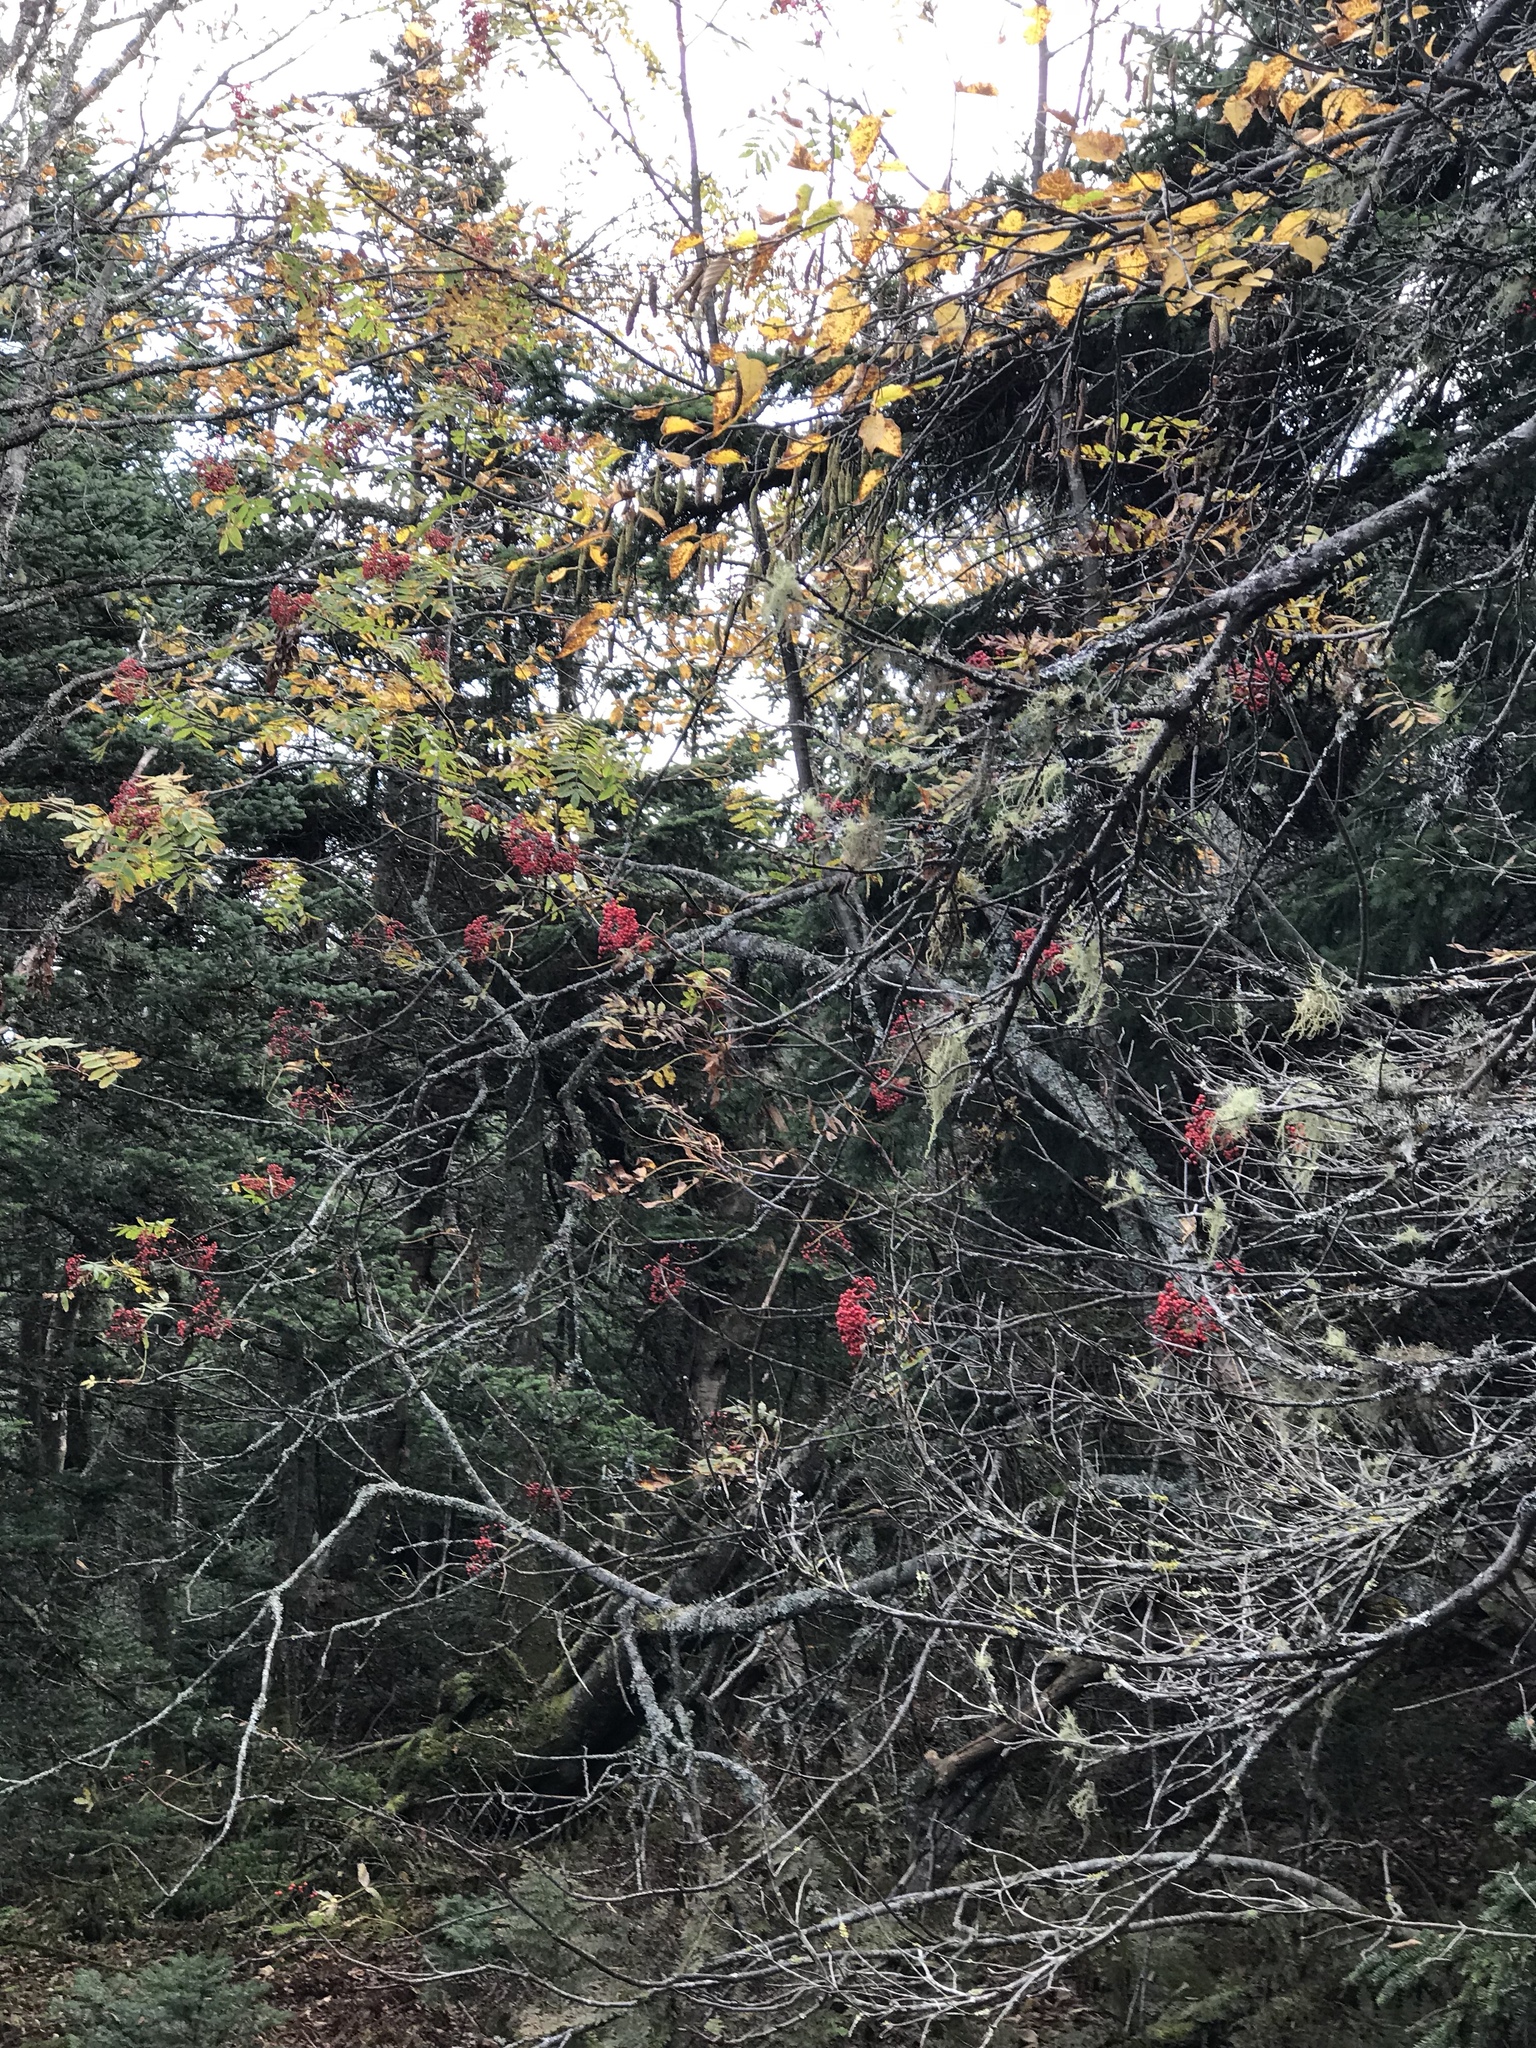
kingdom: Plantae
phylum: Tracheophyta
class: Magnoliopsida
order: Rosales
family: Rosaceae
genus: Sorbus
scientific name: Sorbus americana
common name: American mountain-ash
